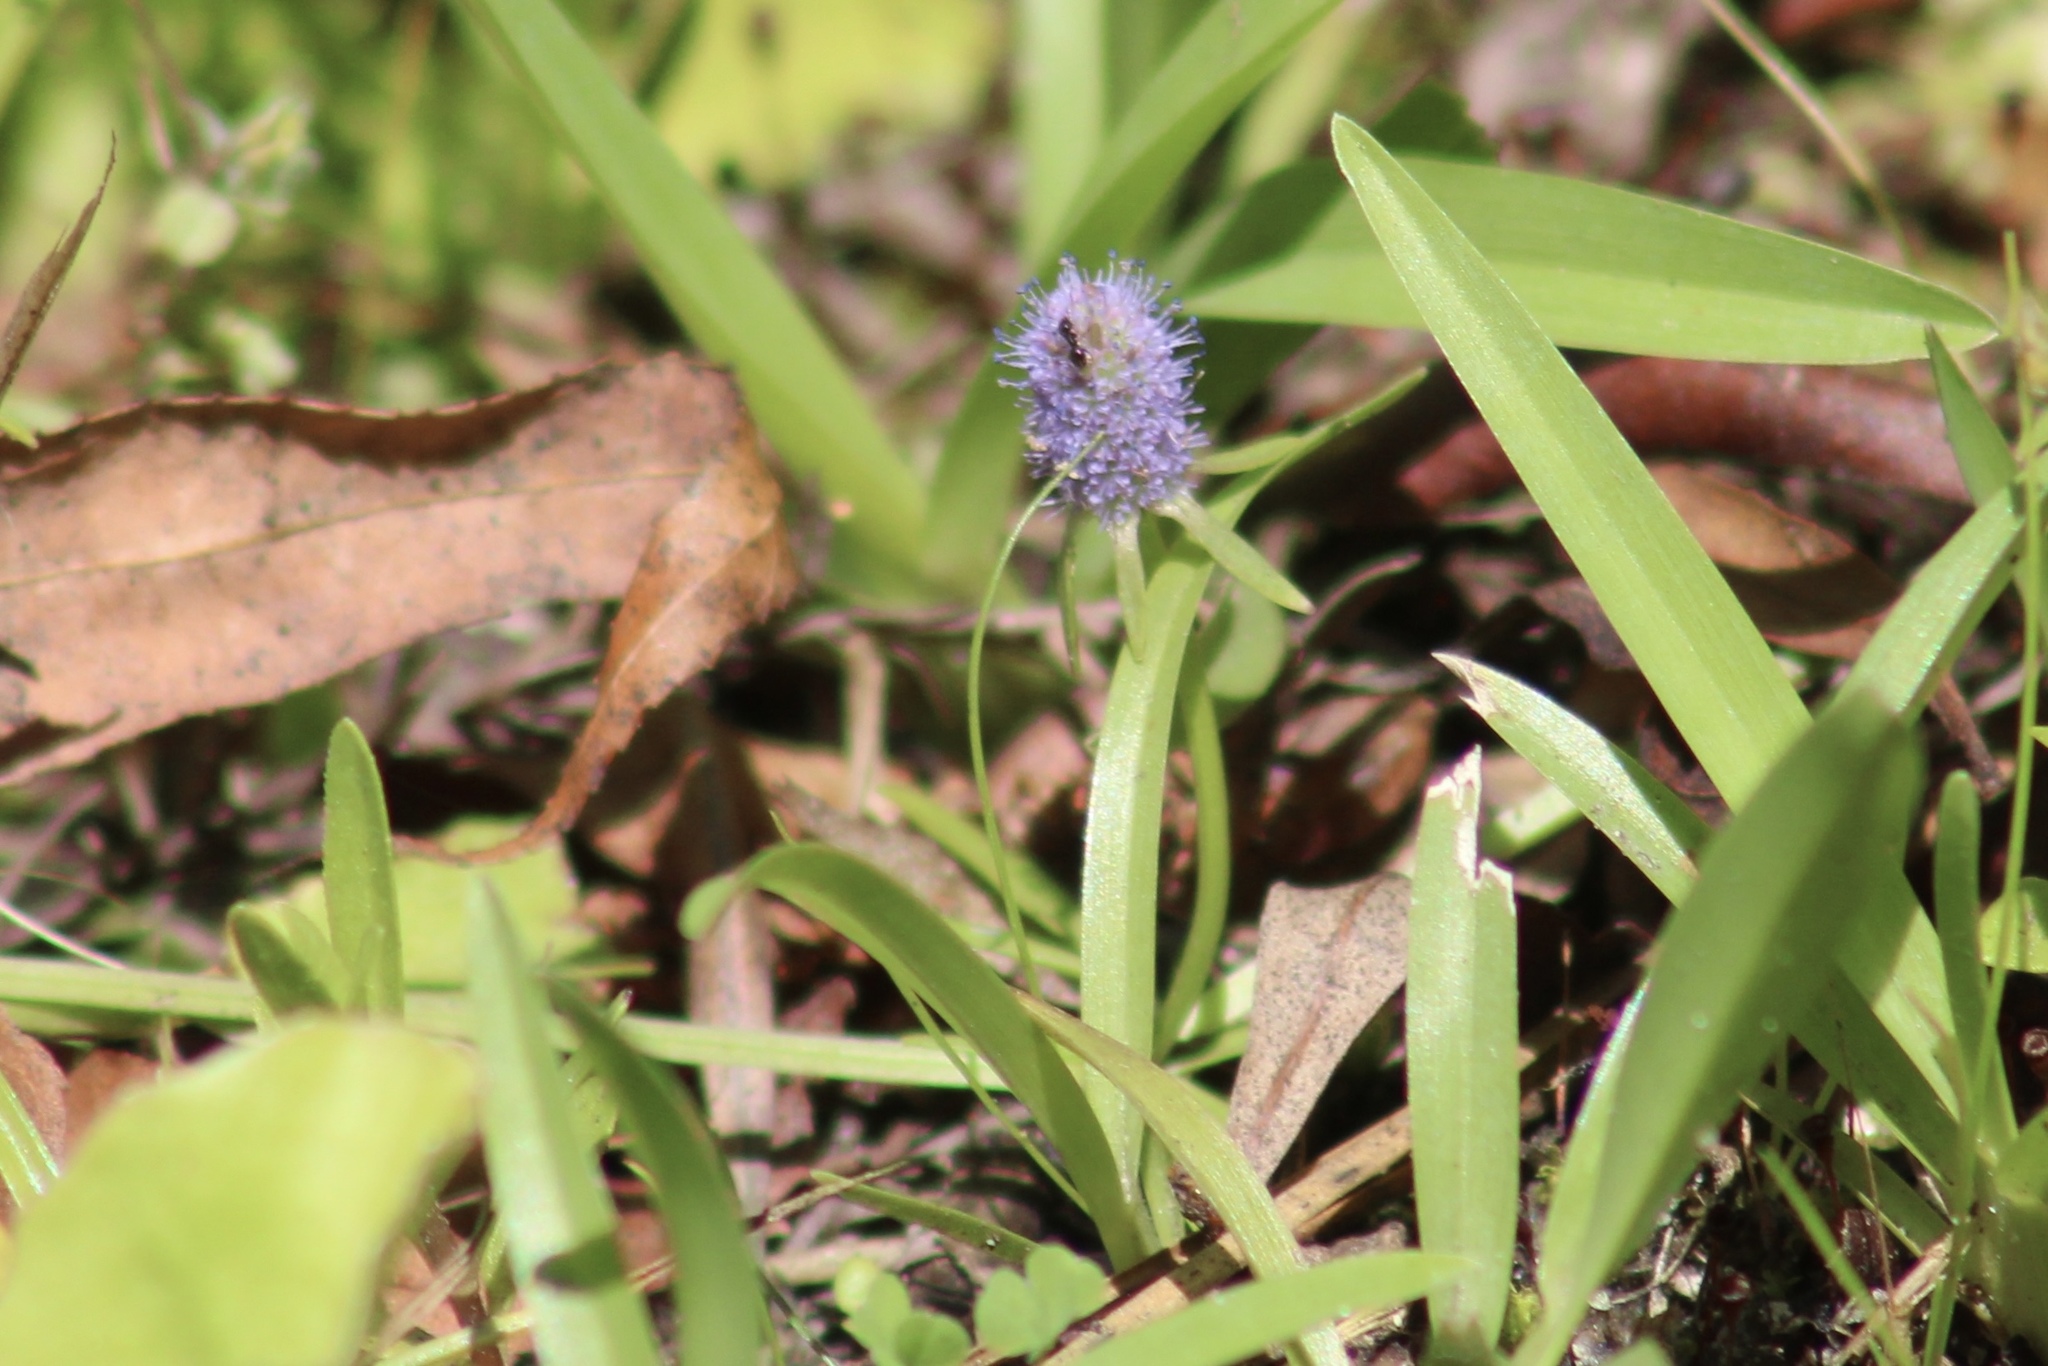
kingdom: Plantae
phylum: Tracheophyta
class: Magnoliopsida
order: Apiales
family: Apiaceae
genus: Eryngium
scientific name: Eryngium prostratum
